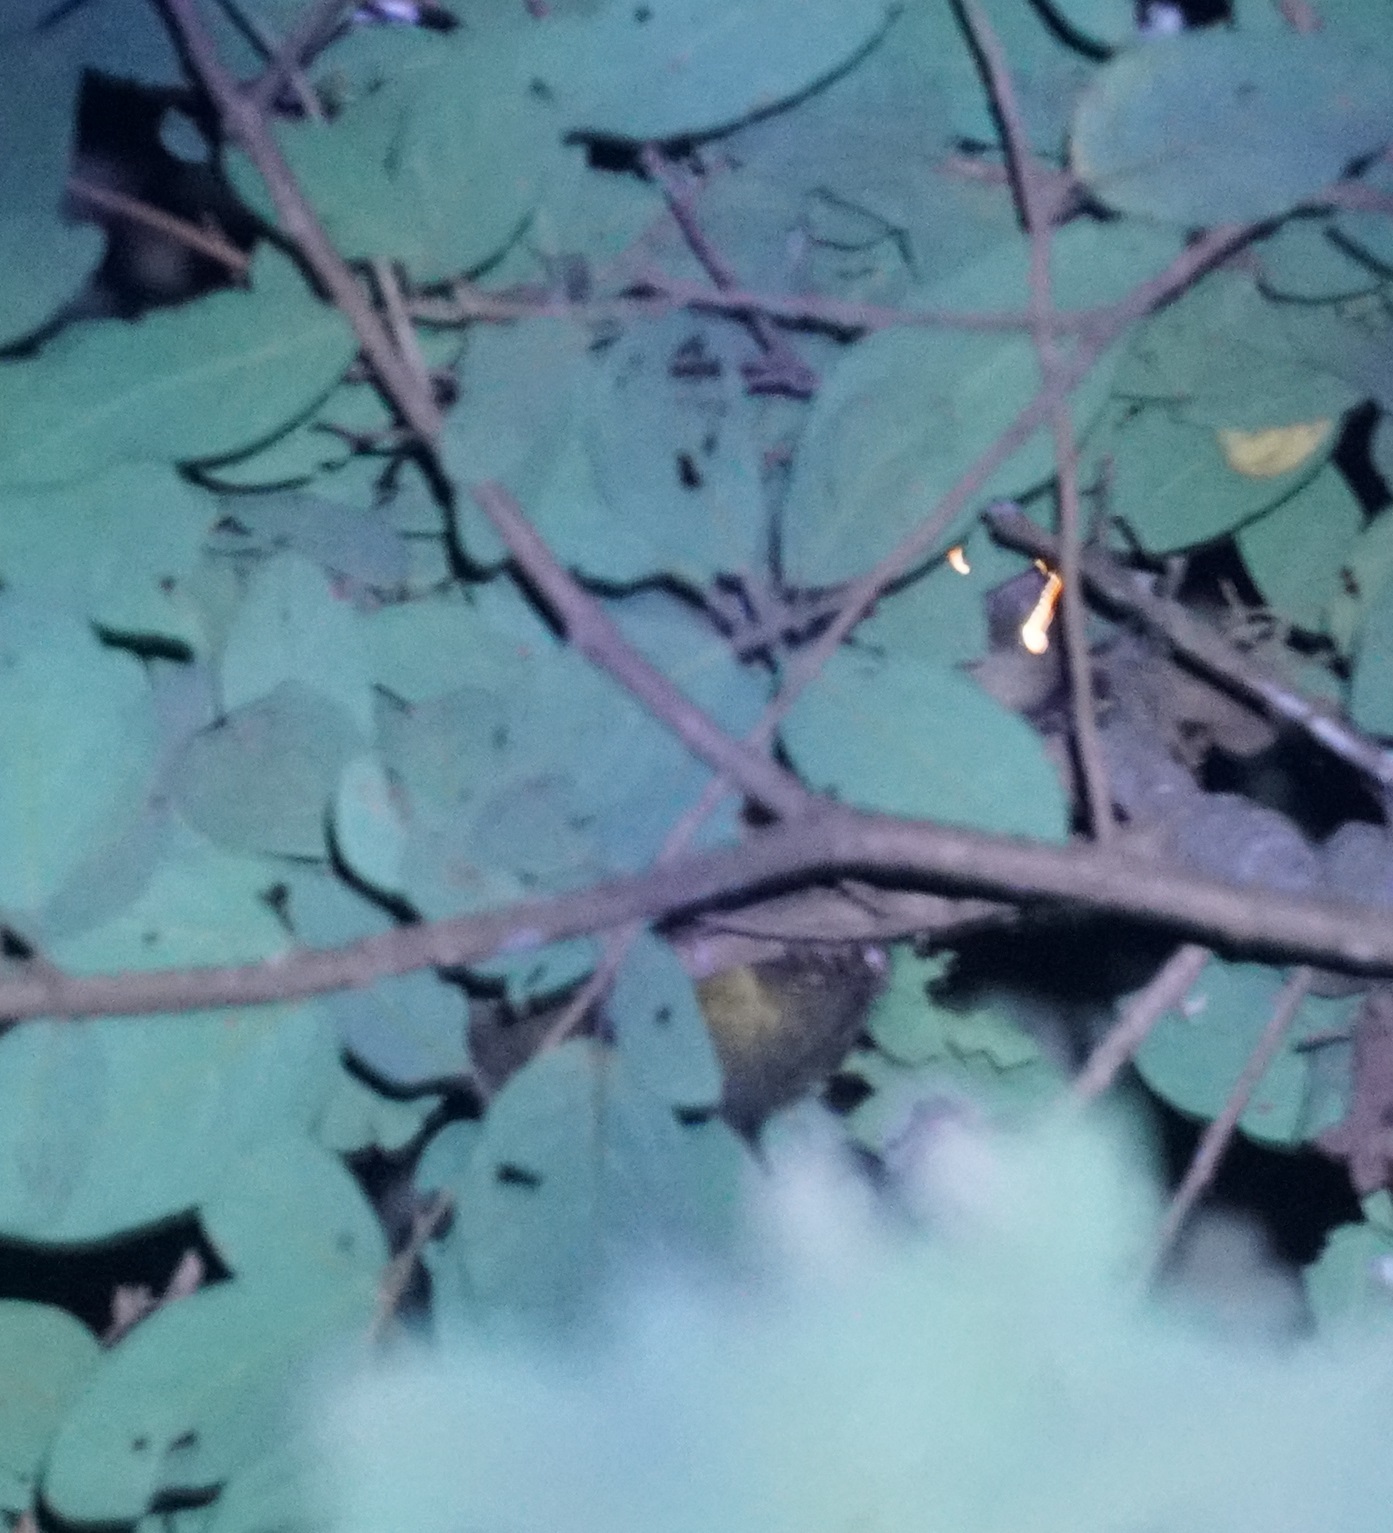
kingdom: Animalia
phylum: Chordata
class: Mammalia
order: Diprotodontia
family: Macropodidae
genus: Dendrolagus
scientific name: Dendrolagus lumholtzi
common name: Lumholtz's tree kangaroo
